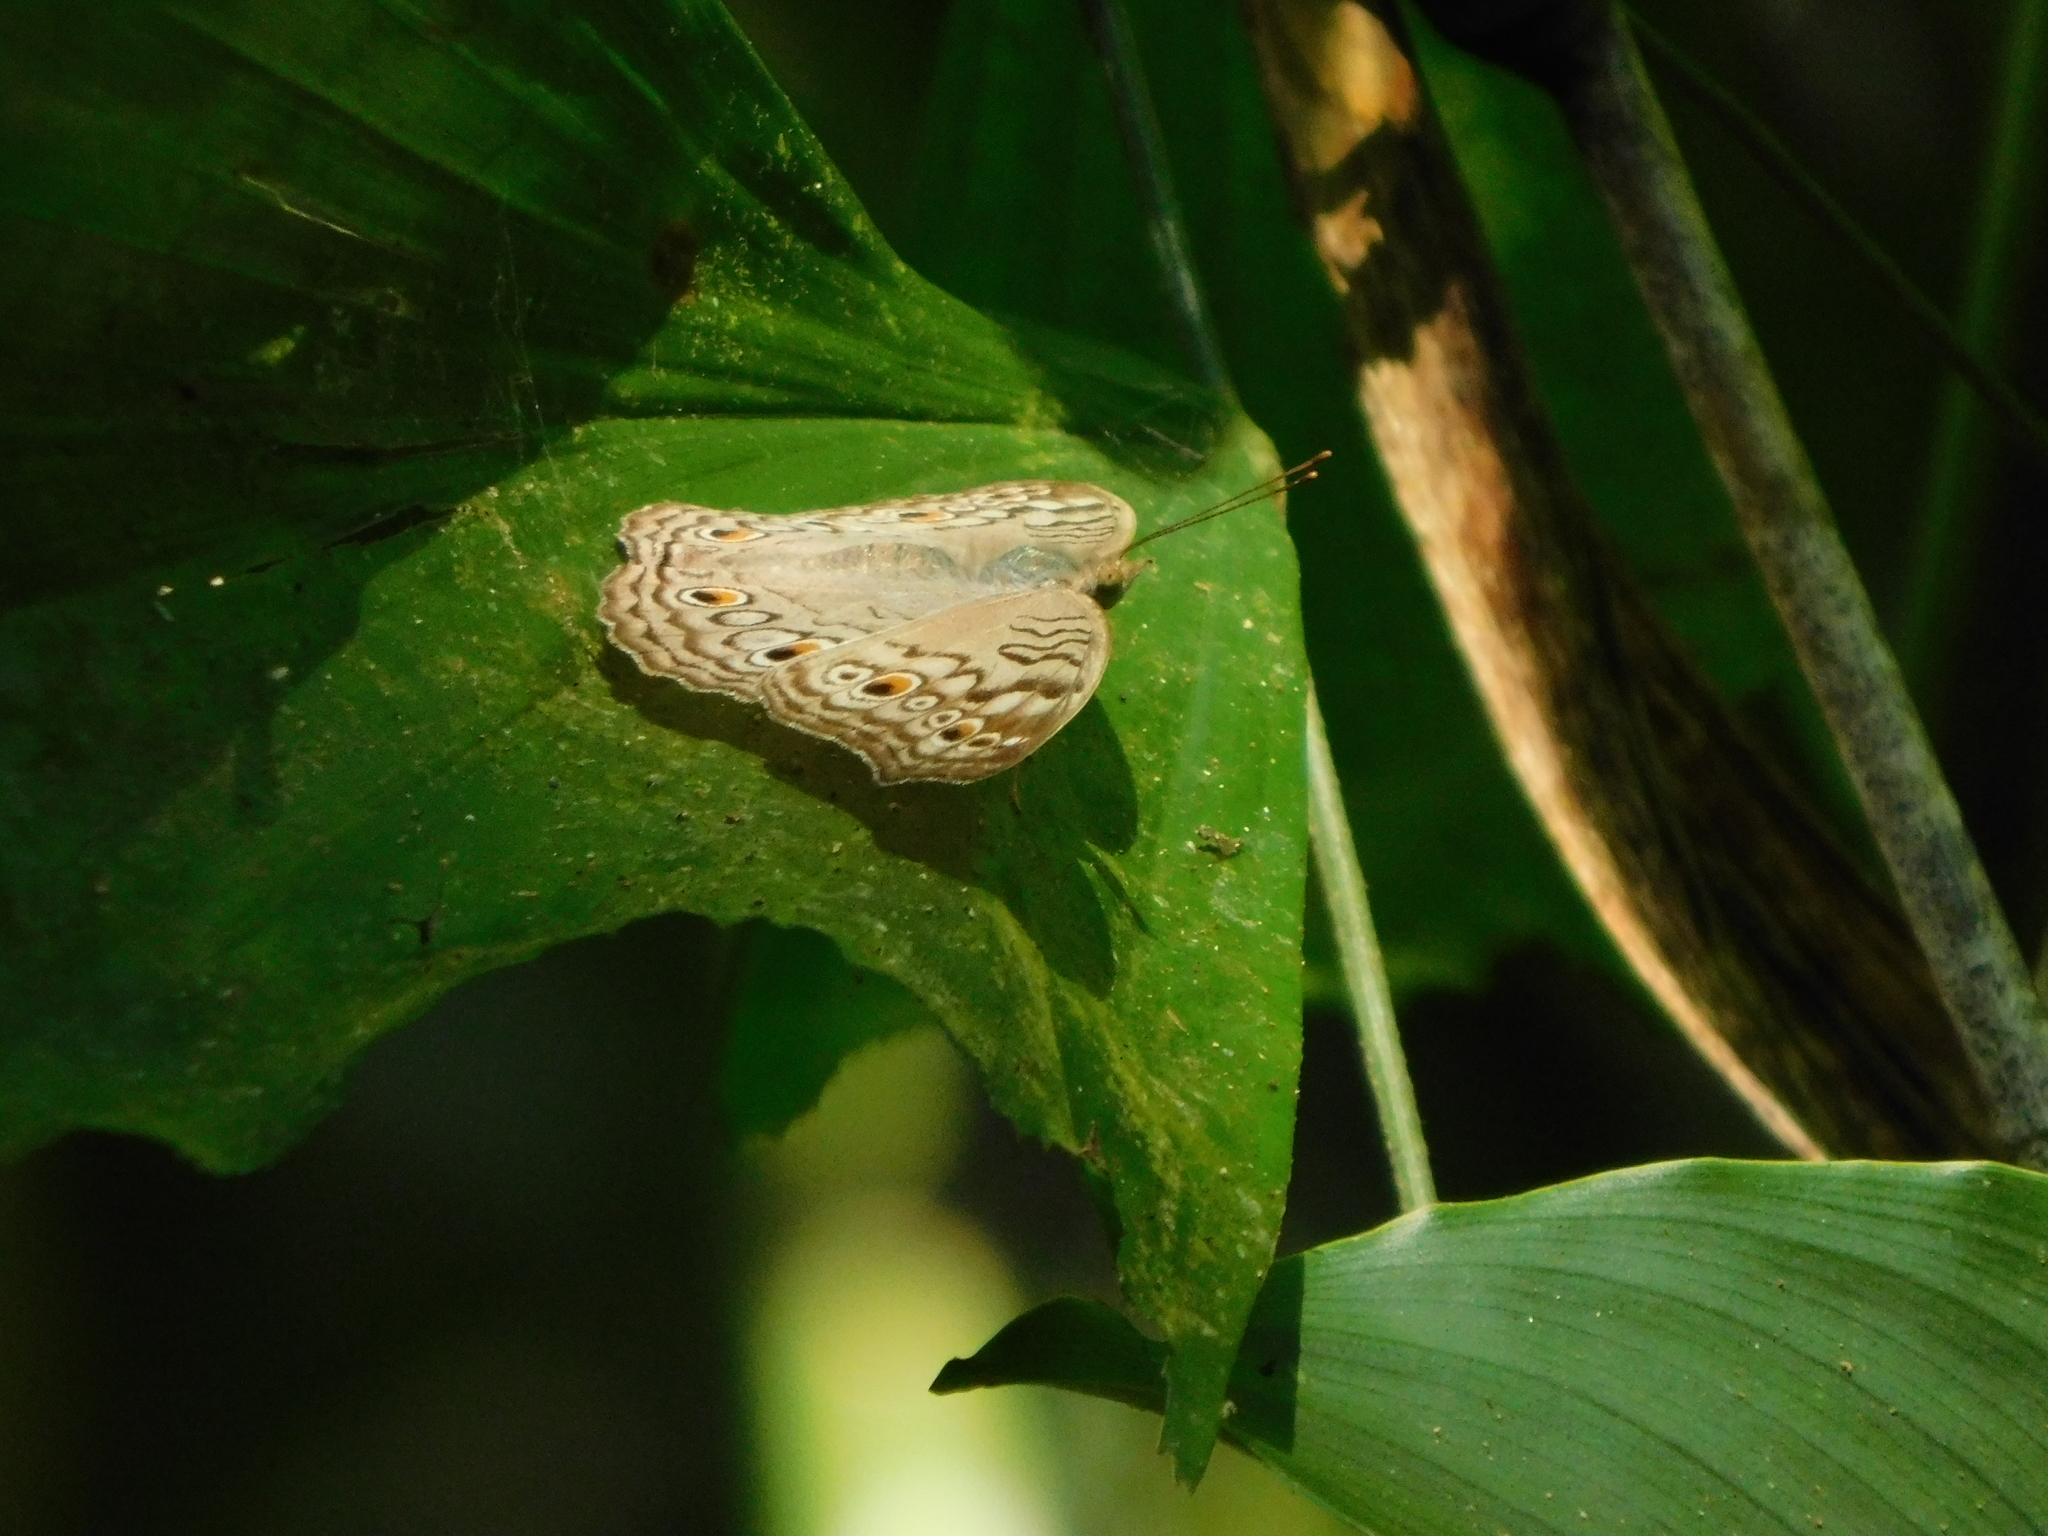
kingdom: Animalia
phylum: Arthropoda
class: Insecta
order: Lepidoptera
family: Nymphalidae
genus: Junonia
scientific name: Junonia atlites
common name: Grey pansy
